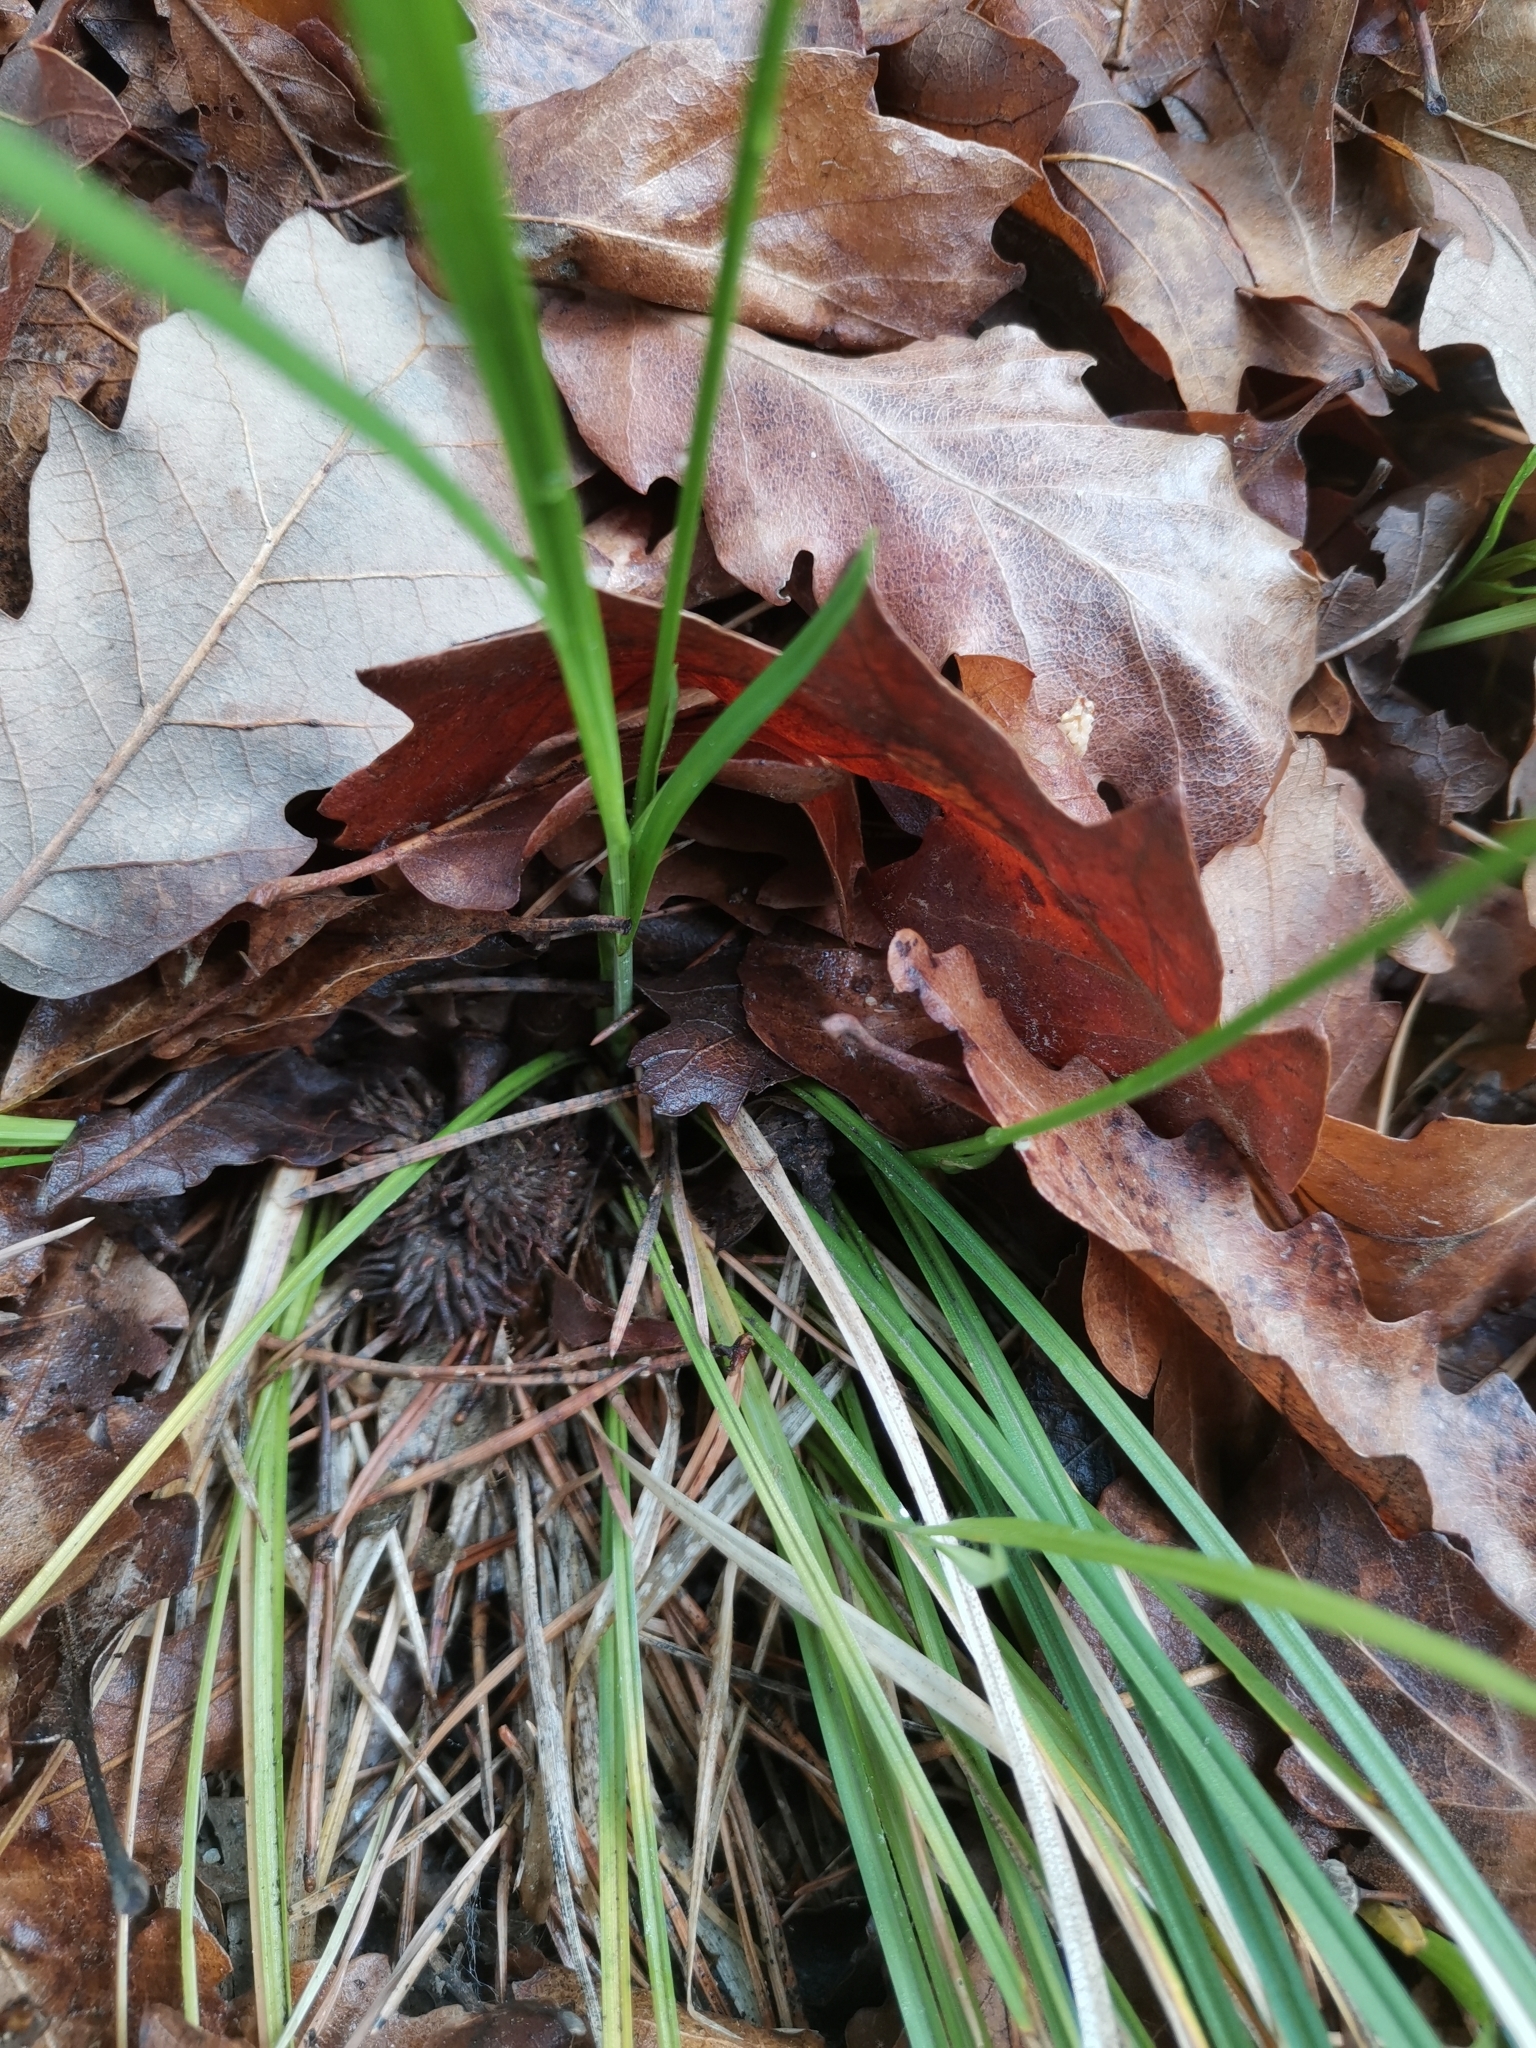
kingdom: Plantae
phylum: Tracheophyta
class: Liliopsida
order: Poales
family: Cyperaceae
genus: Carex
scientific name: Carex michelii
